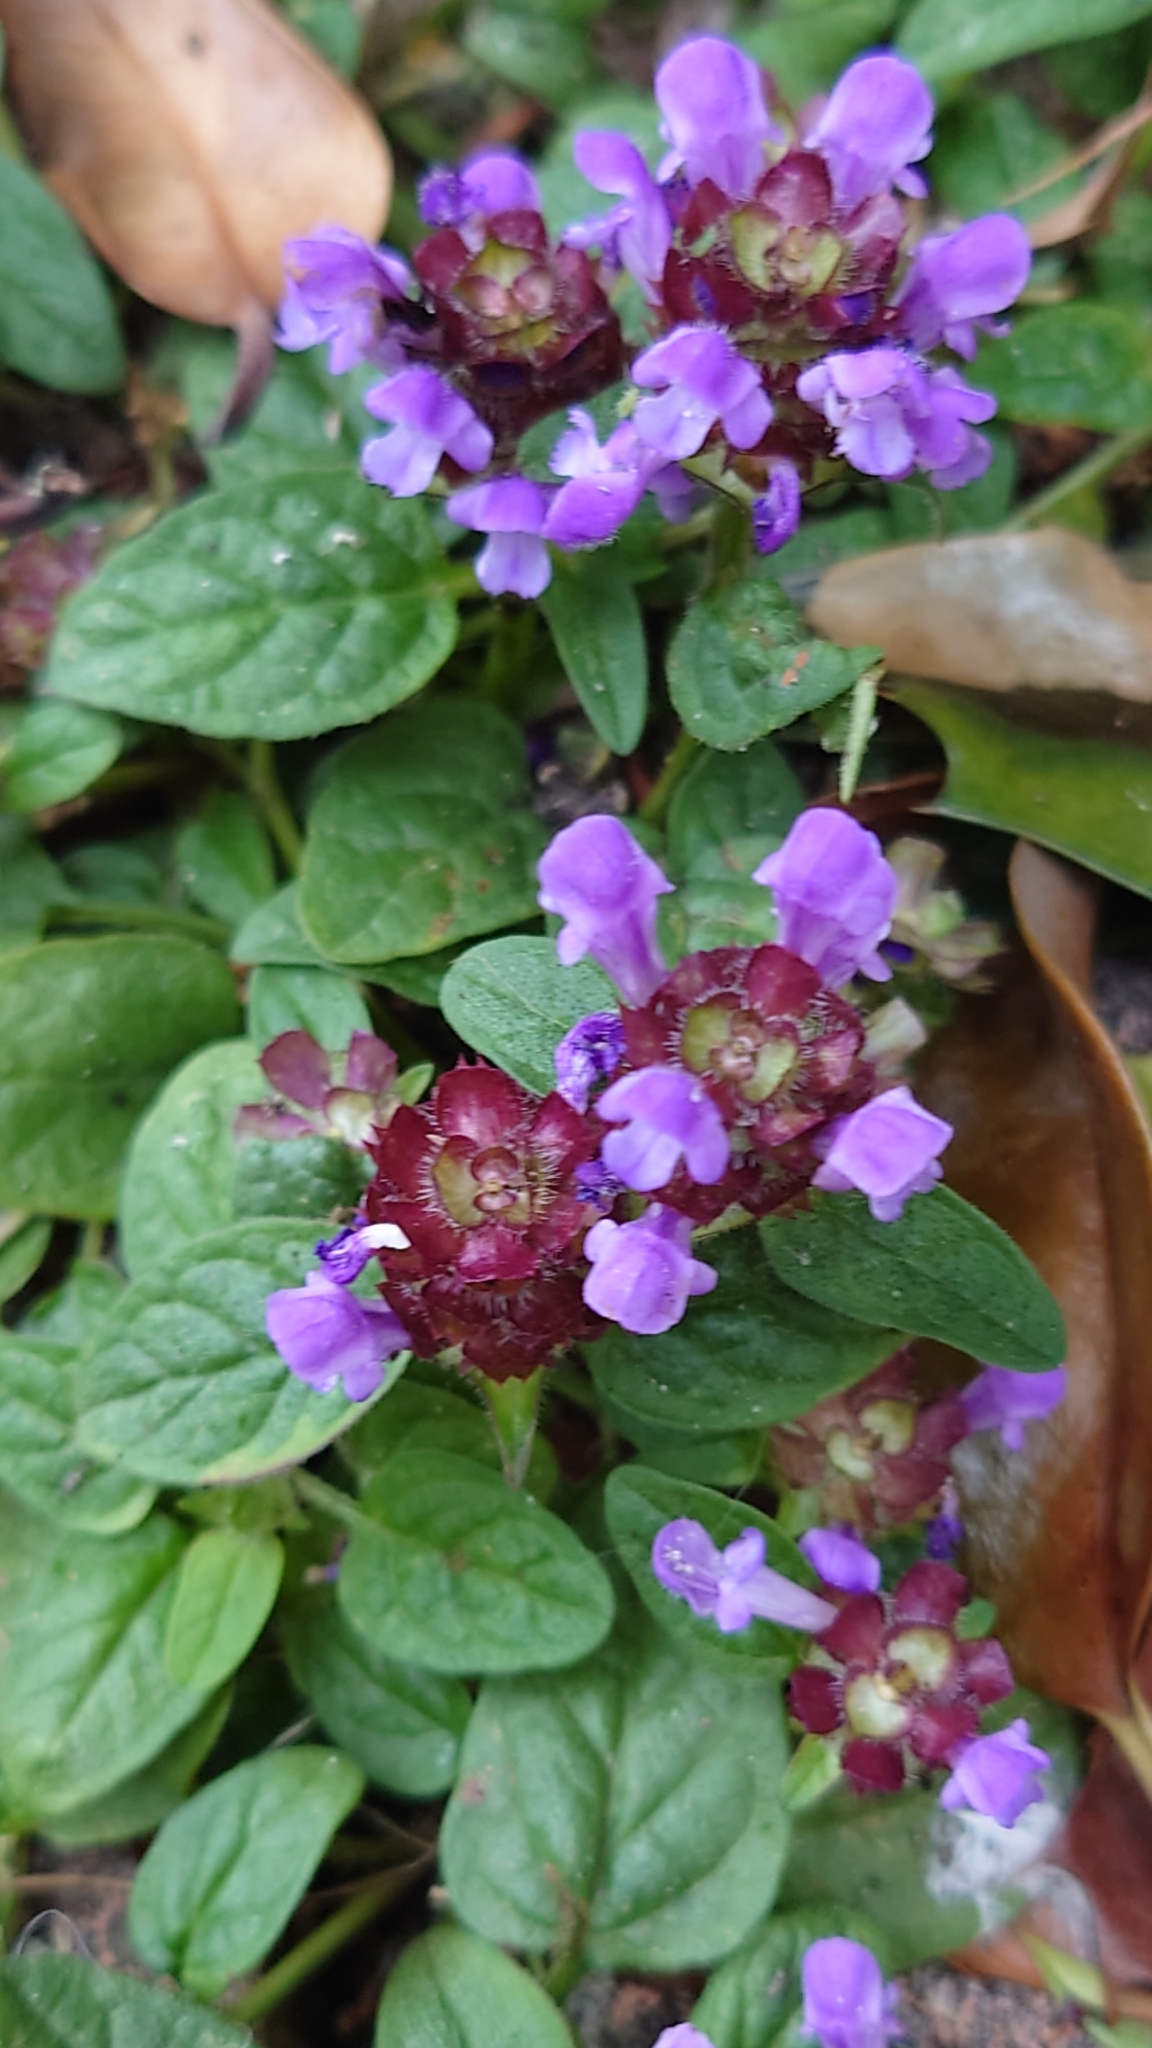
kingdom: Plantae
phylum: Tracheophyta
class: Magnoliopsida
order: Lamiales
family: Lamiaceae
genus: Prunella
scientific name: Prunella vulgaris
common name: Heal-all
